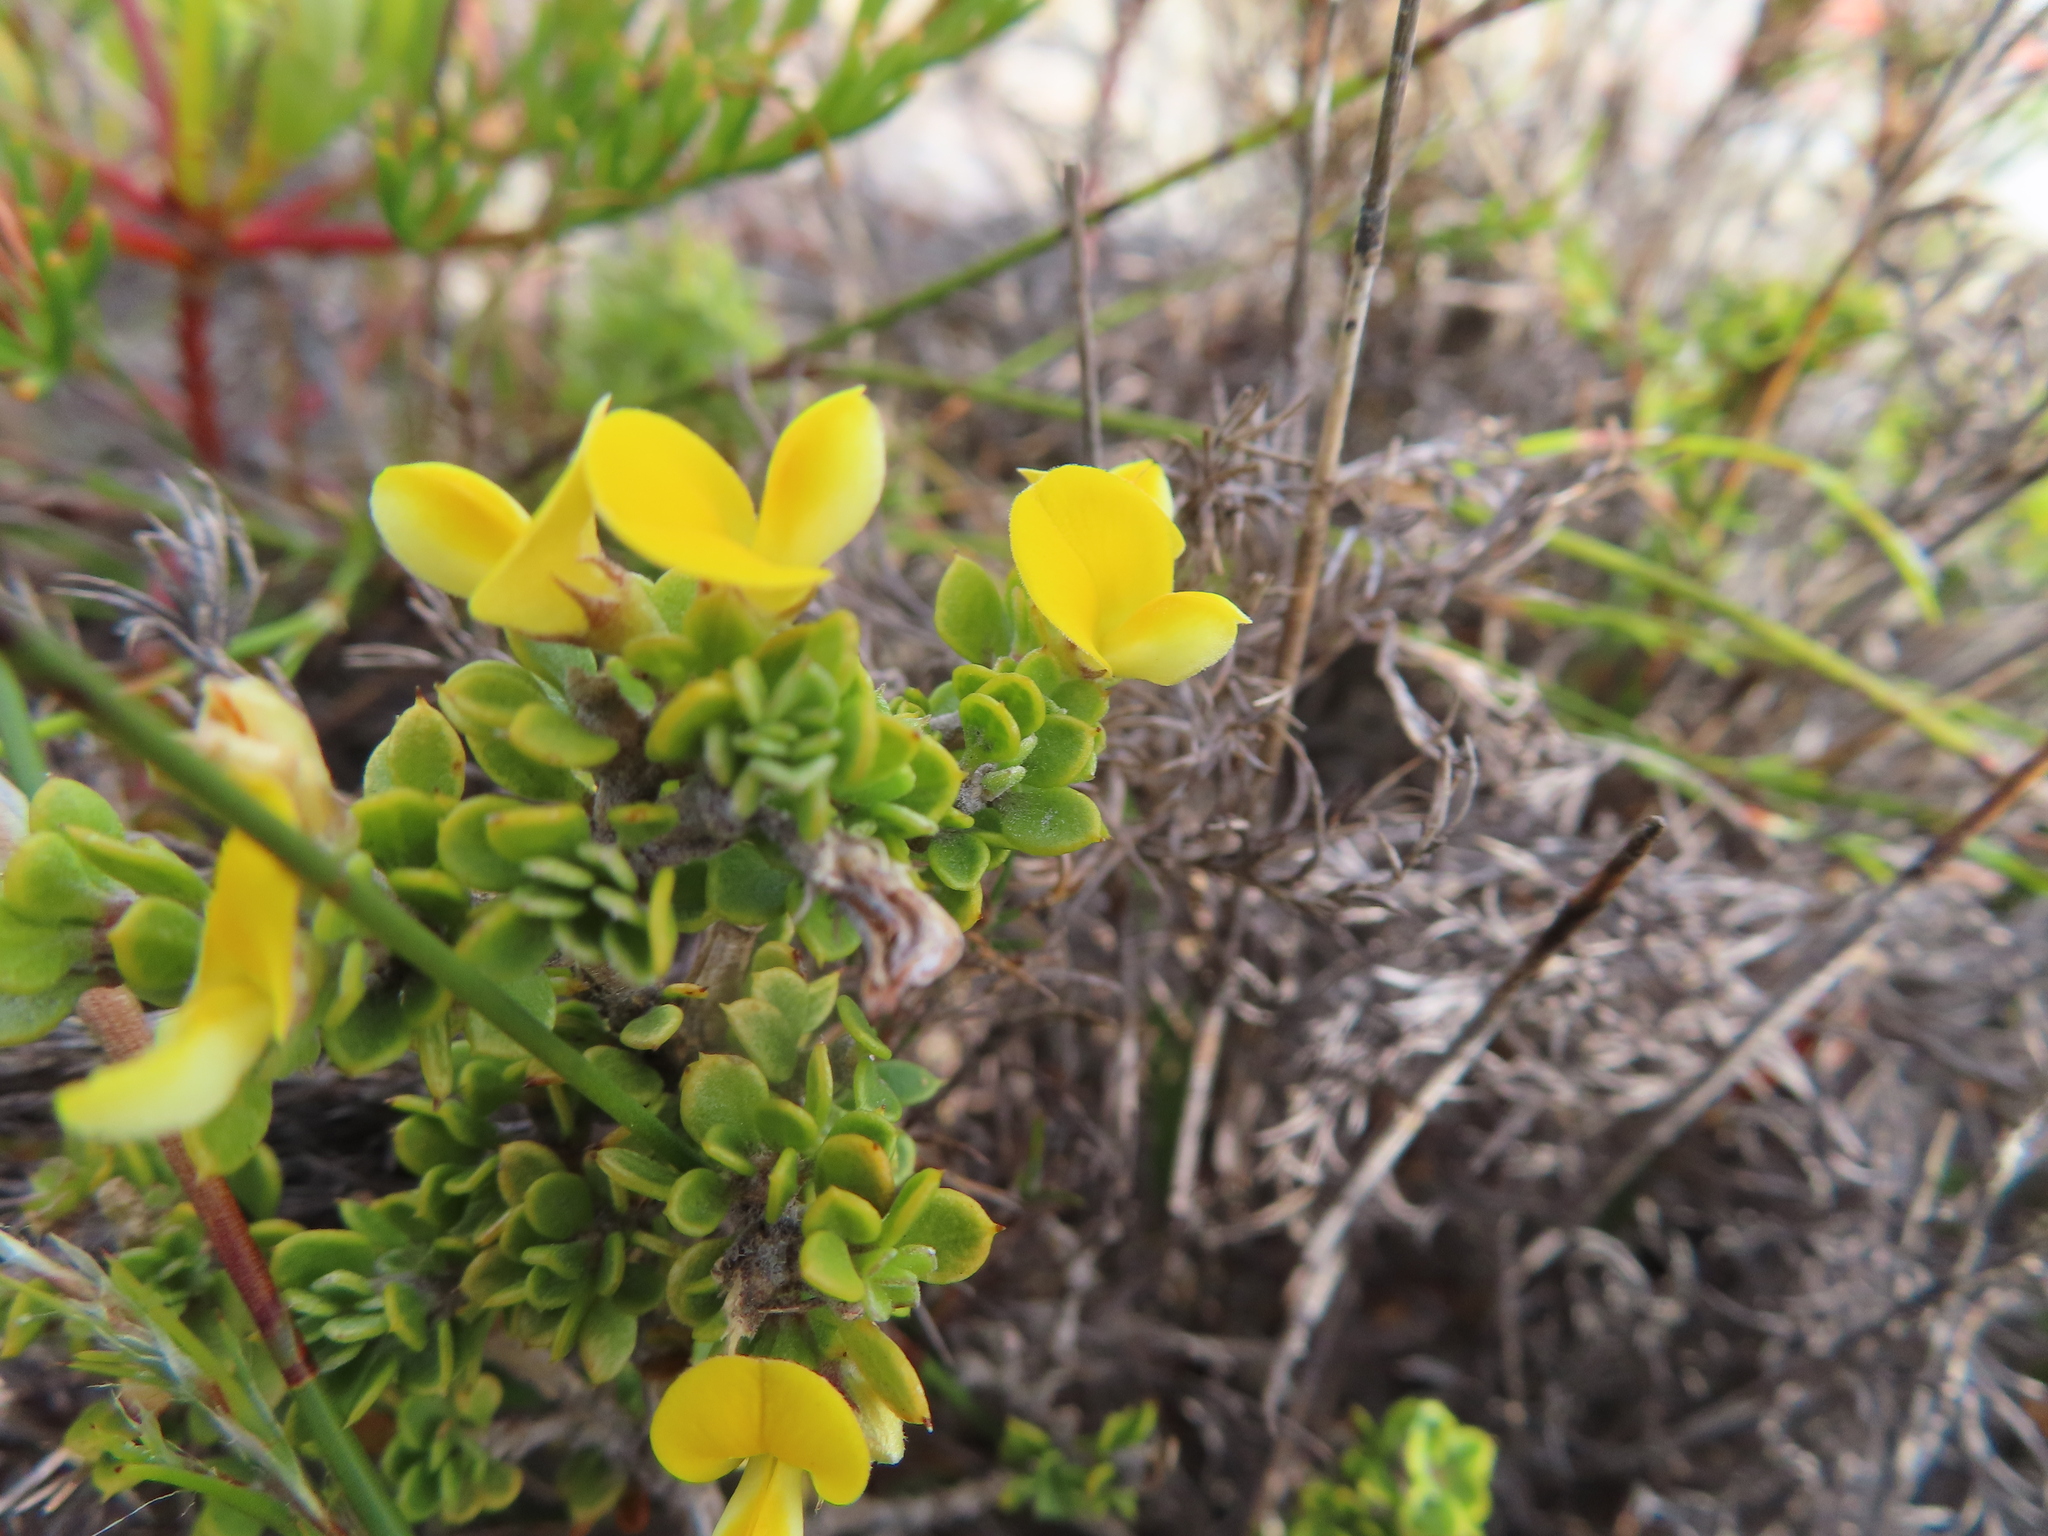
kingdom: Plantae
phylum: Tracheophyta
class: Magnoliopsida
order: Fabales
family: Fabaceae
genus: Aspalathus
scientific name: Aspalathus marginata
